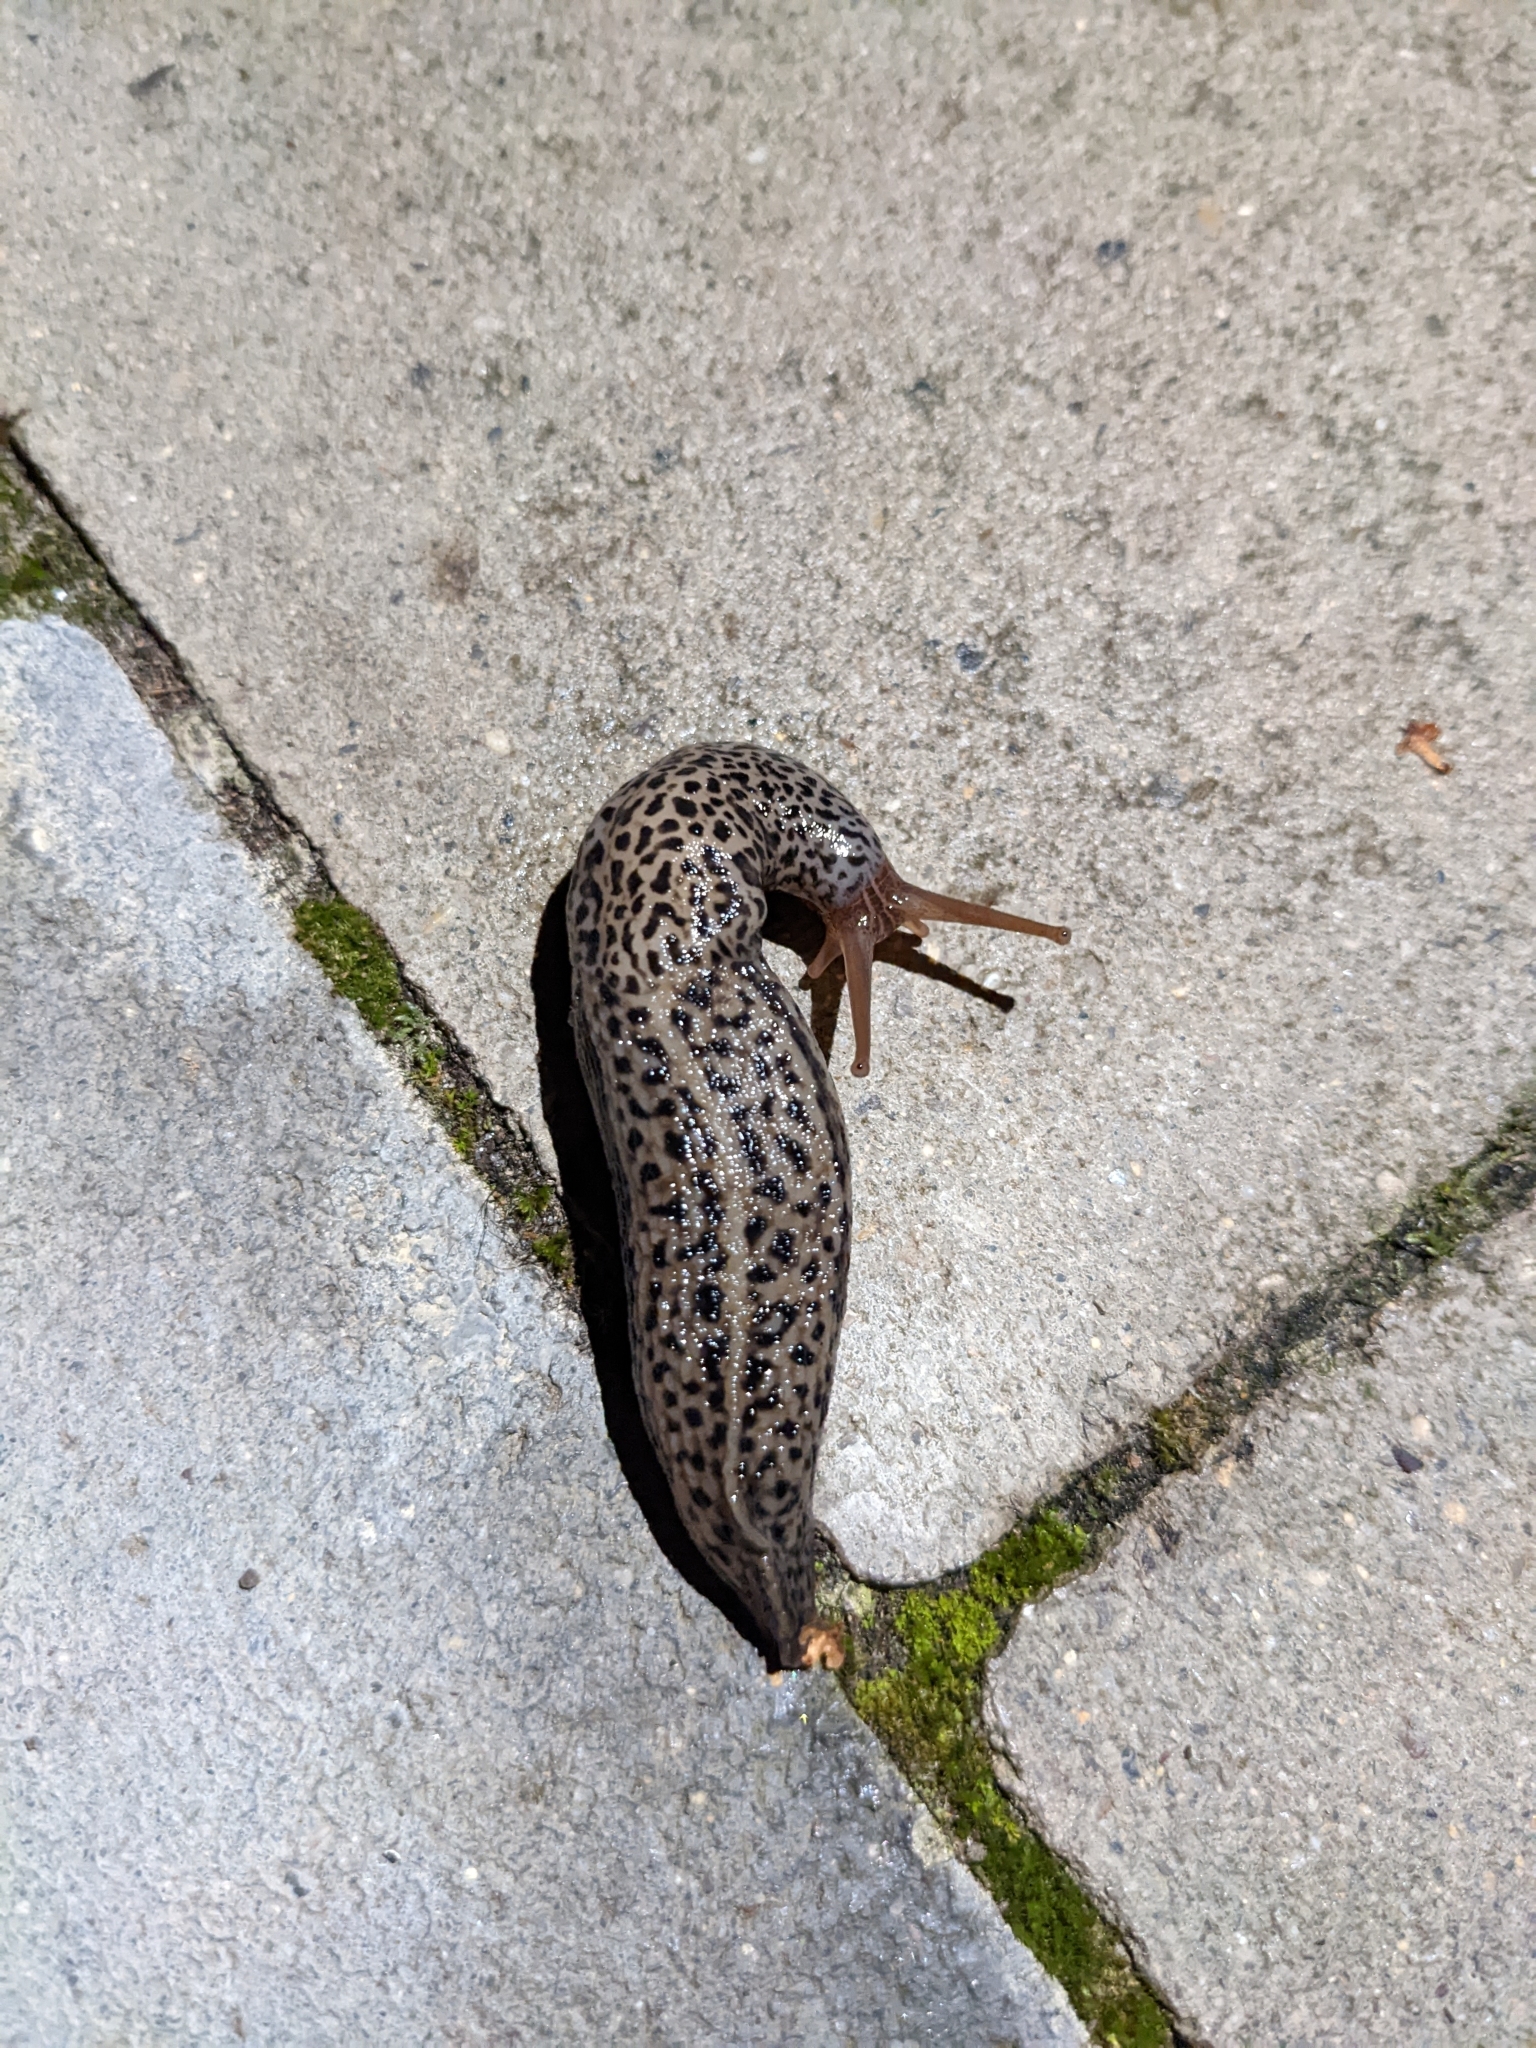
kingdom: Animalia
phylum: Mollusca
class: Gastropoda
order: Stylommatophora
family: Limacidae
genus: Limax
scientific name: Limax maximus
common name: Great grey slug
